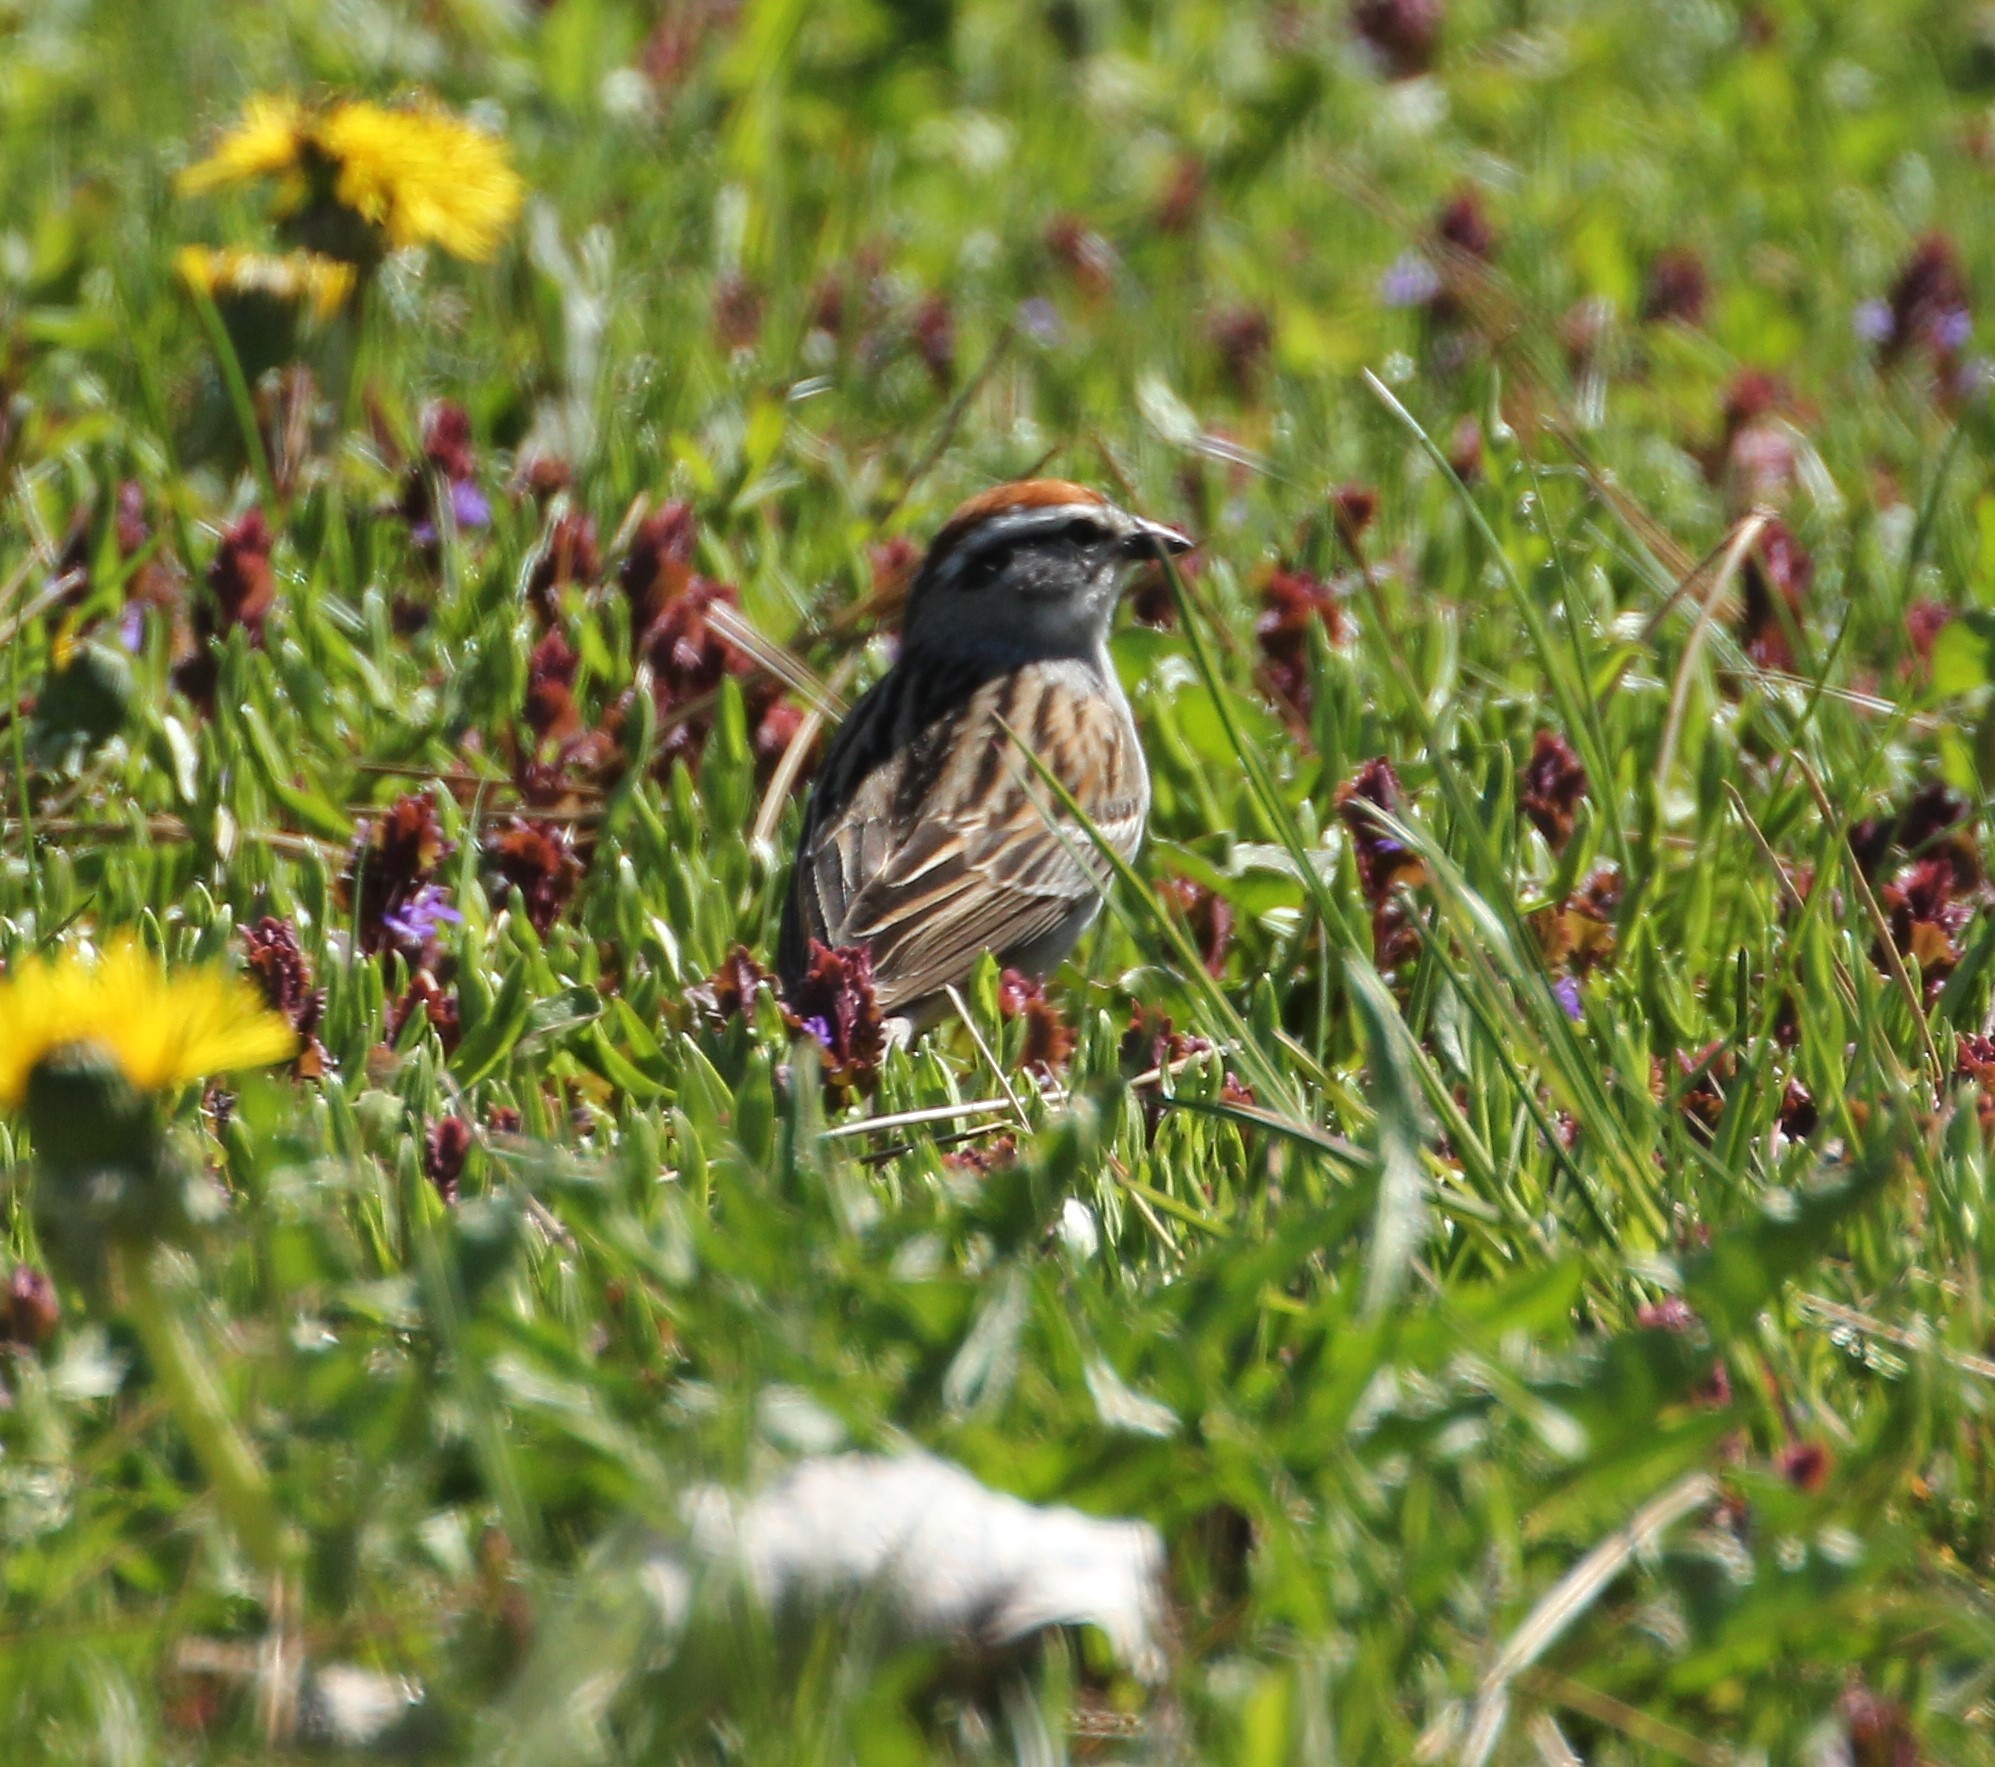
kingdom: Animalia
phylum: Chordata
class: Aves
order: Passeriformes
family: Passerellidae
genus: Spizella
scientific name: Spizella passerina
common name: Chipping sparrow
